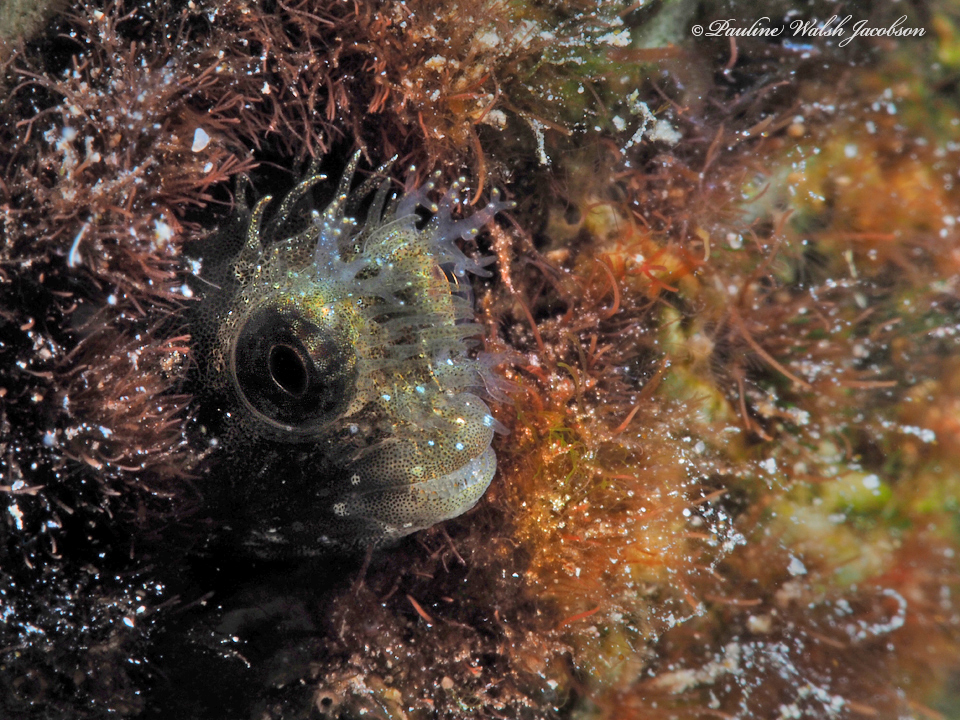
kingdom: Animalia
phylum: Chordata
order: Perciformes
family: Chaenopsidae
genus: Acanthemblemaria
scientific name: Acanthemblemaria medusa
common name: Medusa blenny
